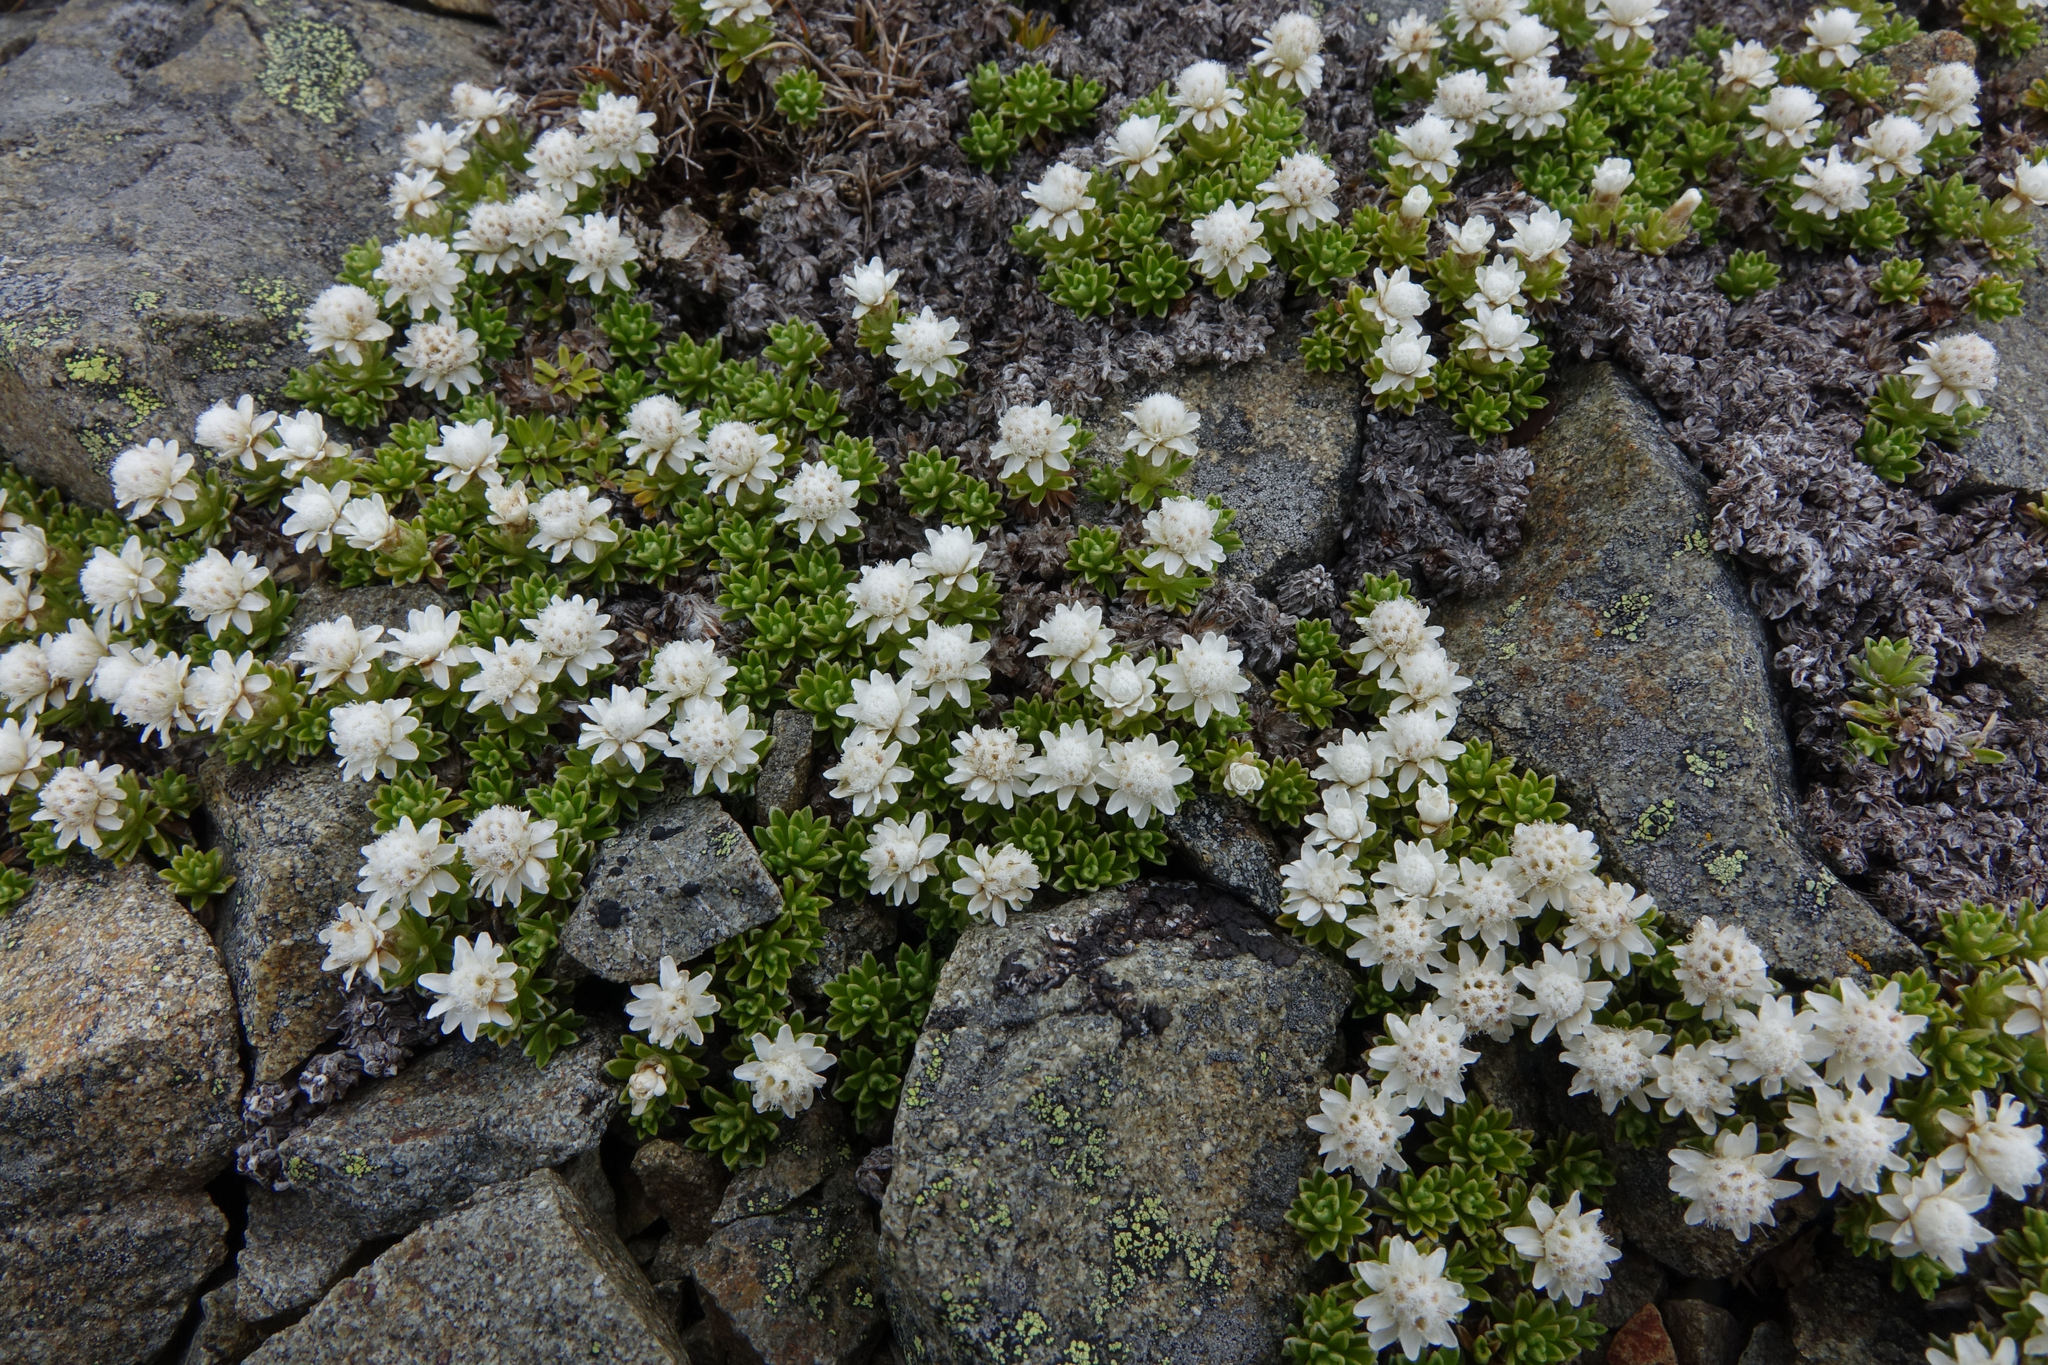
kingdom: Plantae
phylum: Tracheophyta
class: Magnoliopsida
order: Asterales
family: Asteraceae
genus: Raoulia
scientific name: Raoulia subsericea
